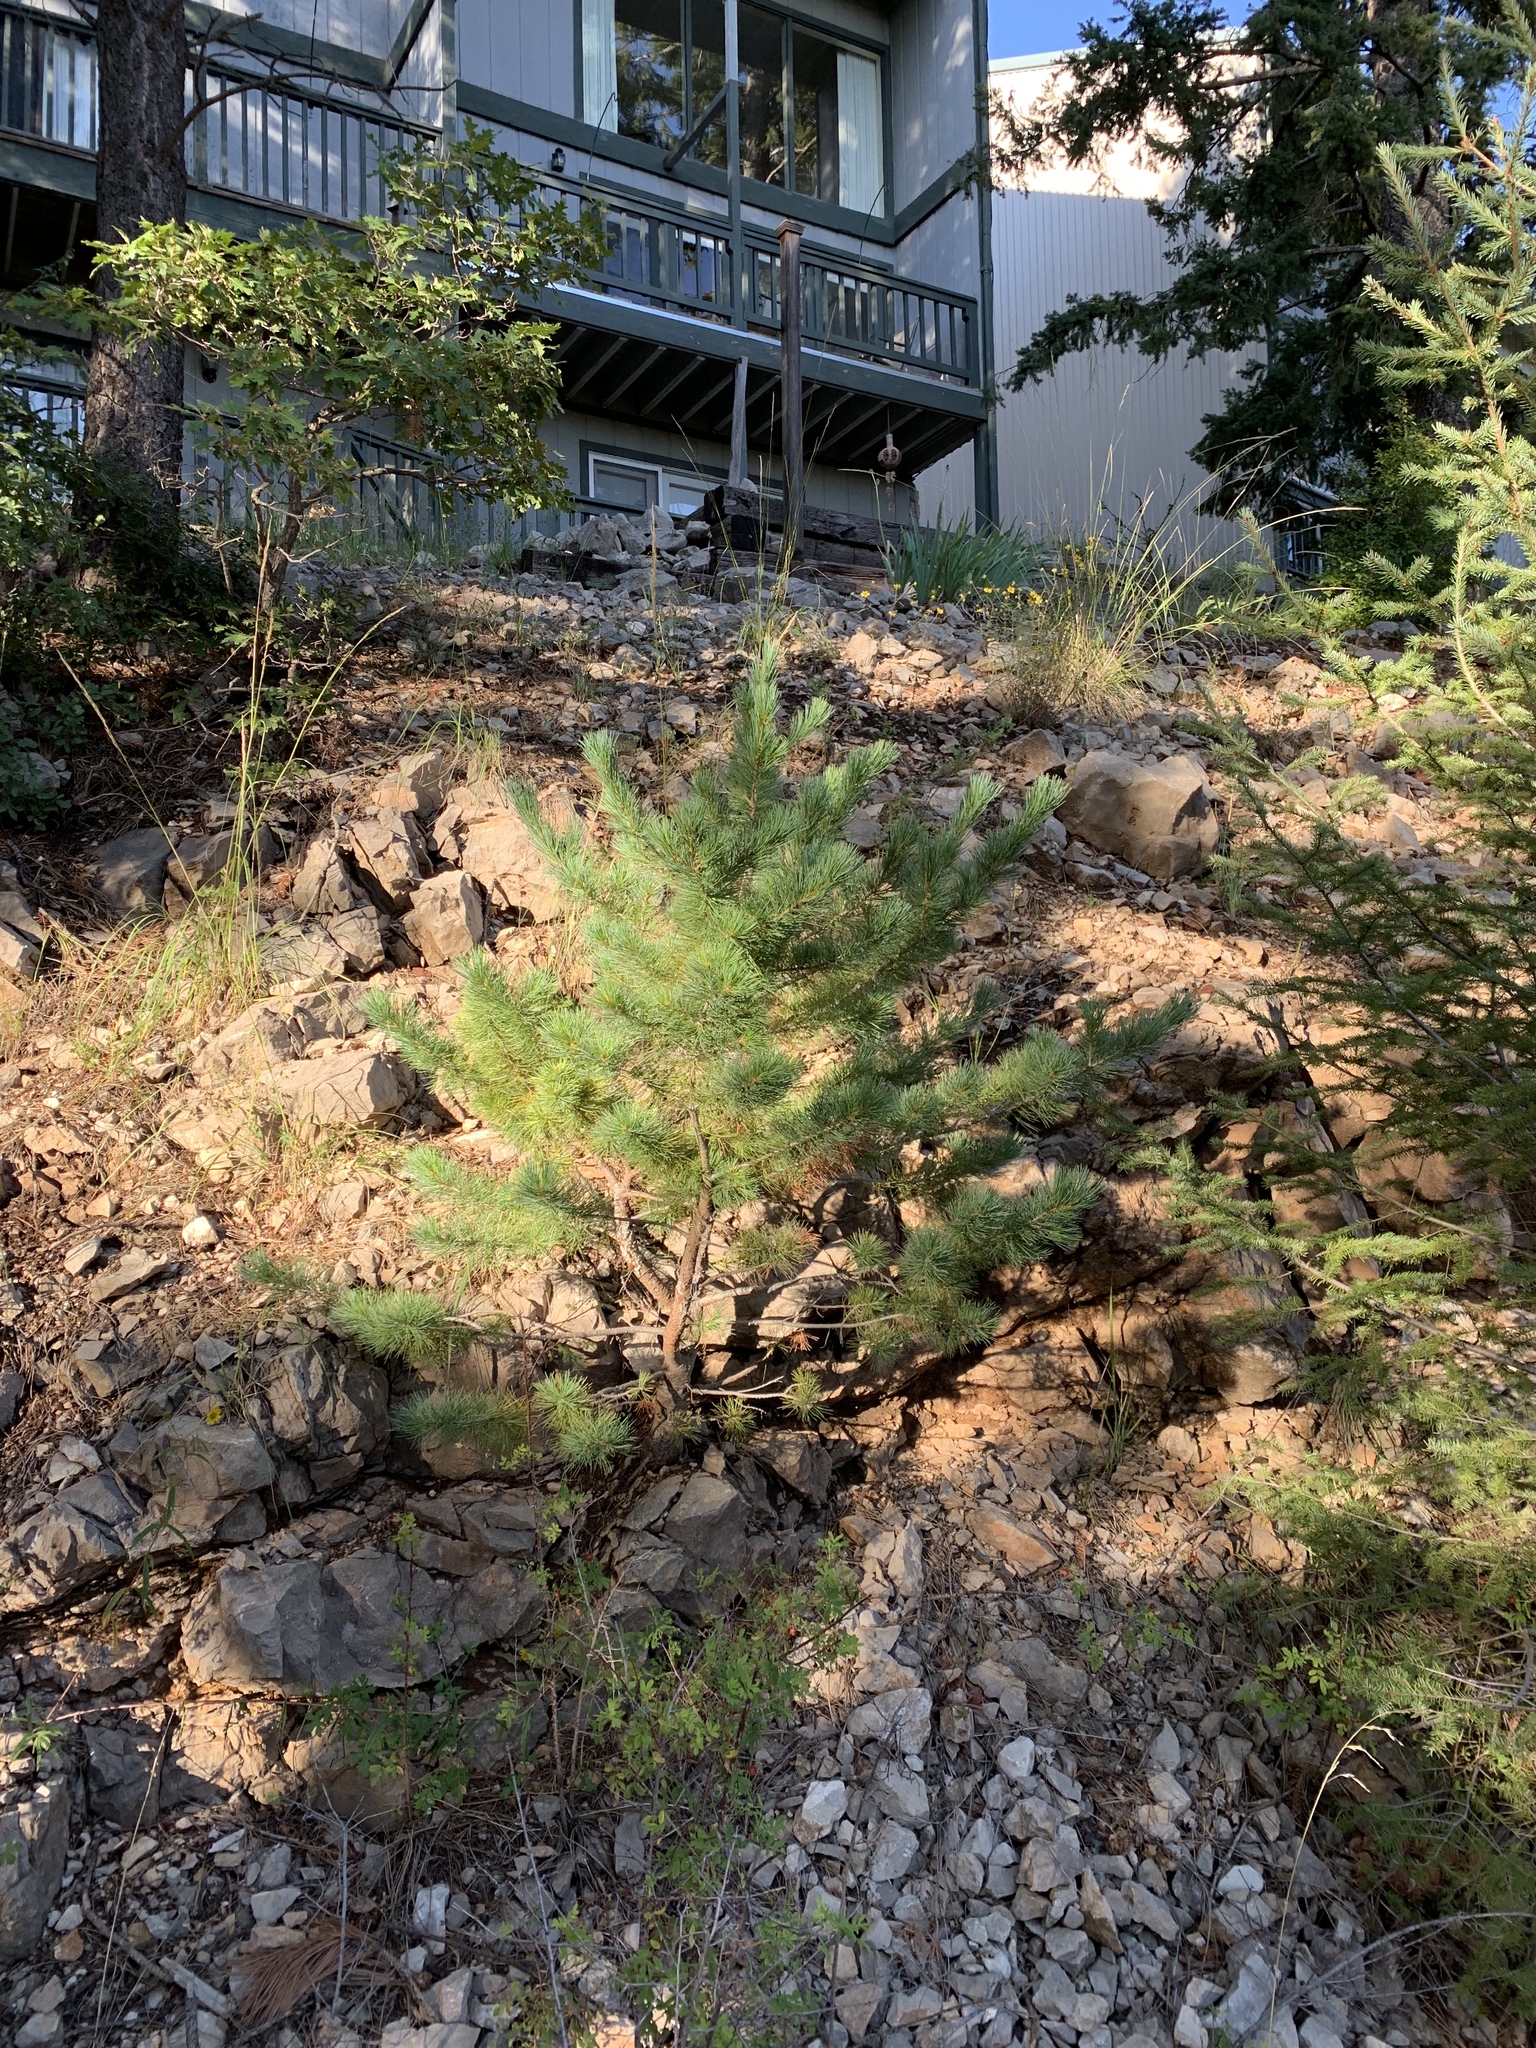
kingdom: Plantae
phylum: Tracheophyta
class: Pinopsida
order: Pinales
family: Pinaceae
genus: Pinus
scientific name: Pinus strobiformis
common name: Southwestern white pine
